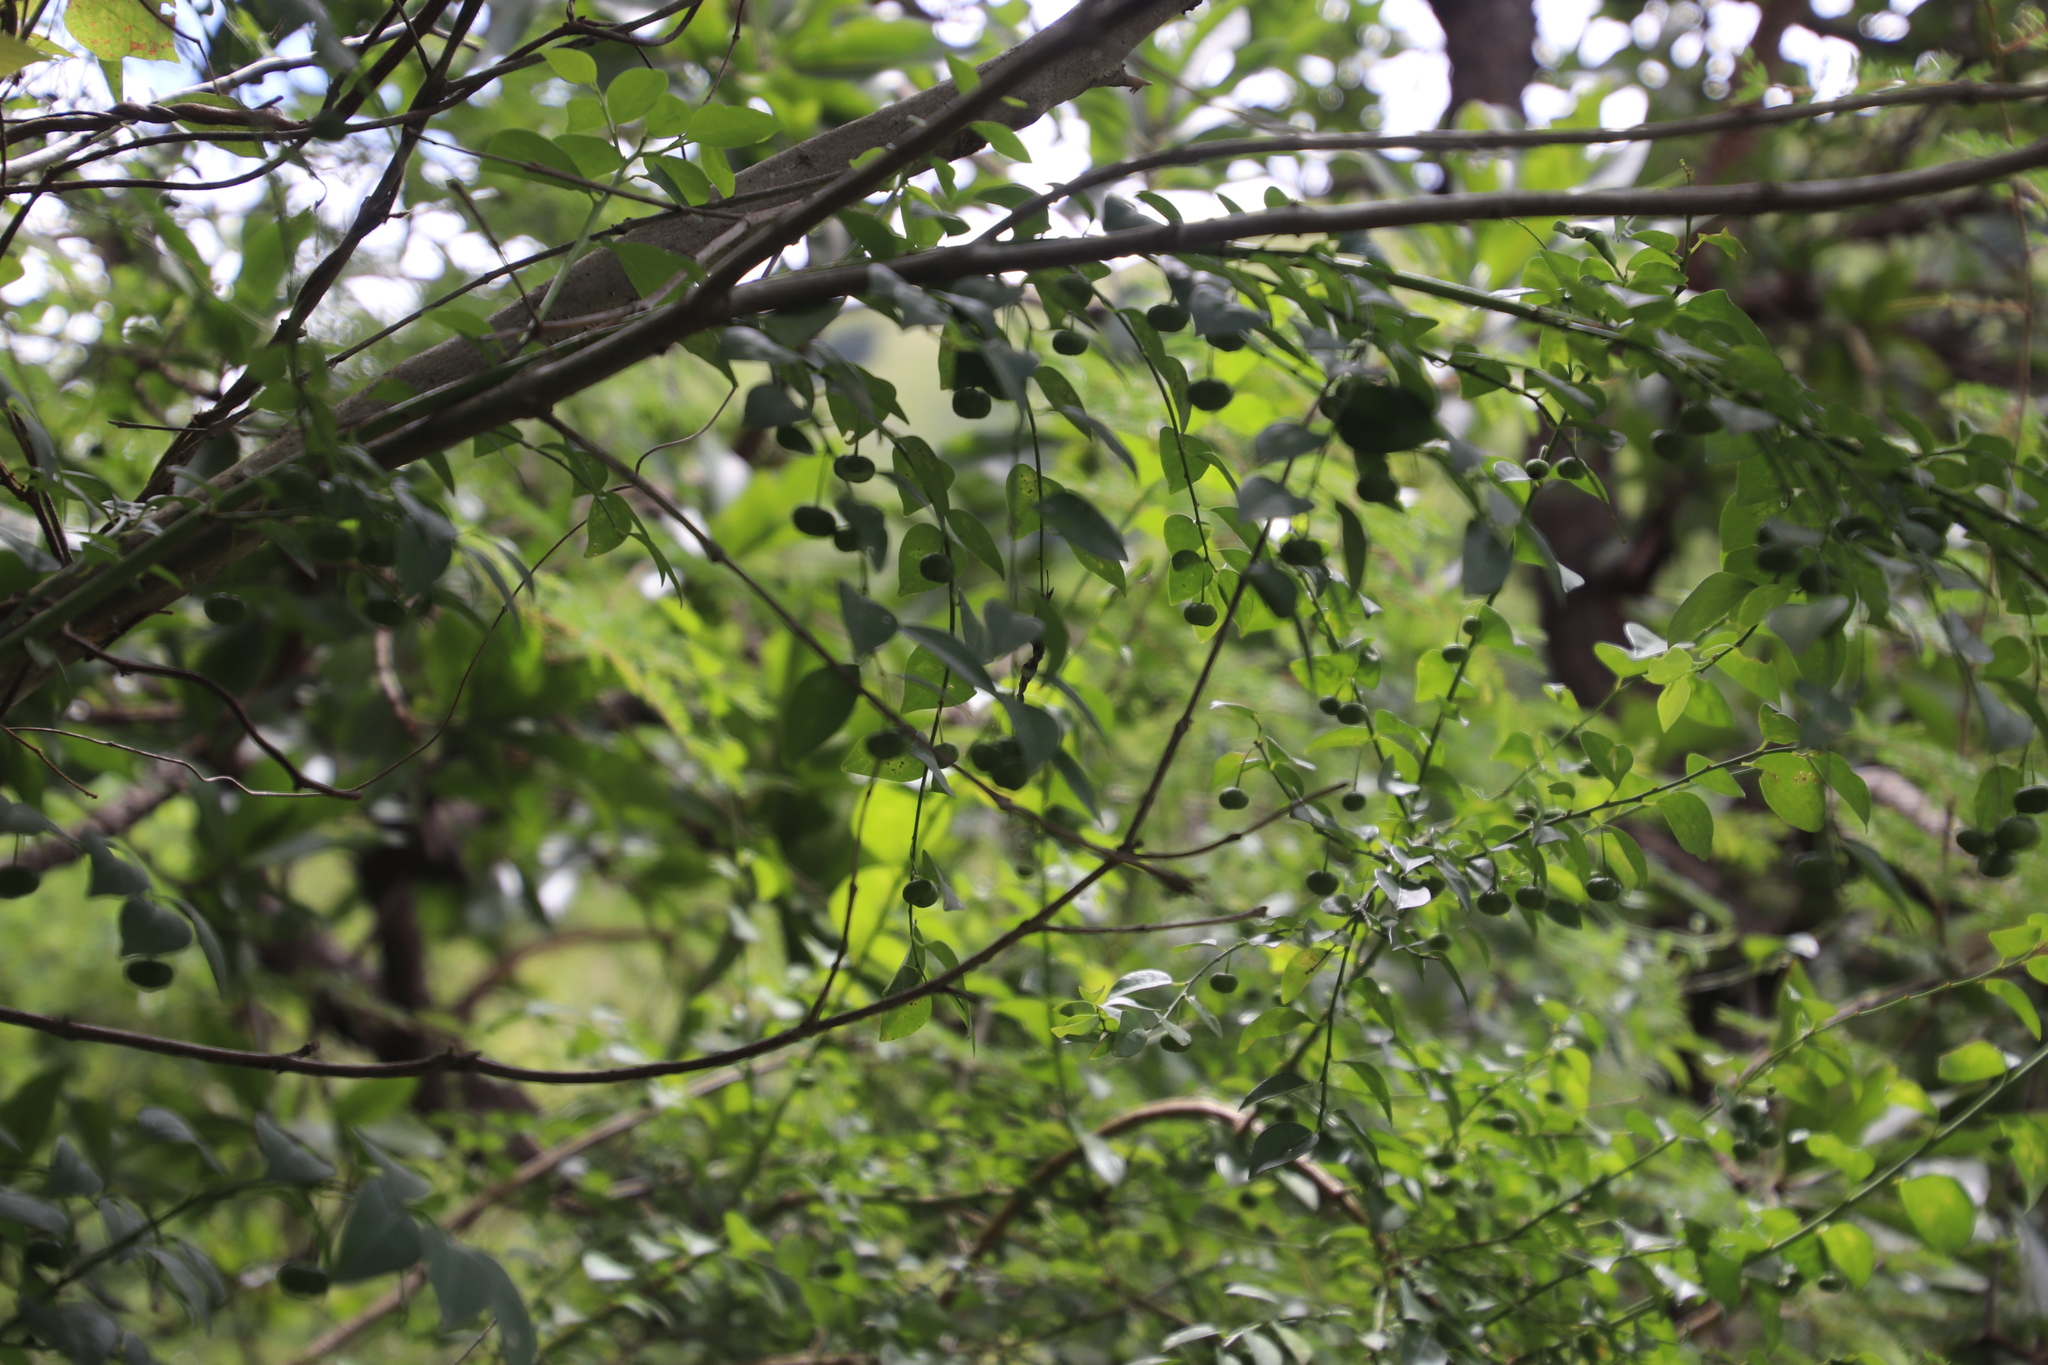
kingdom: Plantae
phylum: Tracheophyta
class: Magnoliopsida
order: Malpighiales
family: Phyllanthaceae
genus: Pseudophyllanthus
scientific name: Pseudophyllanthus ovalis
